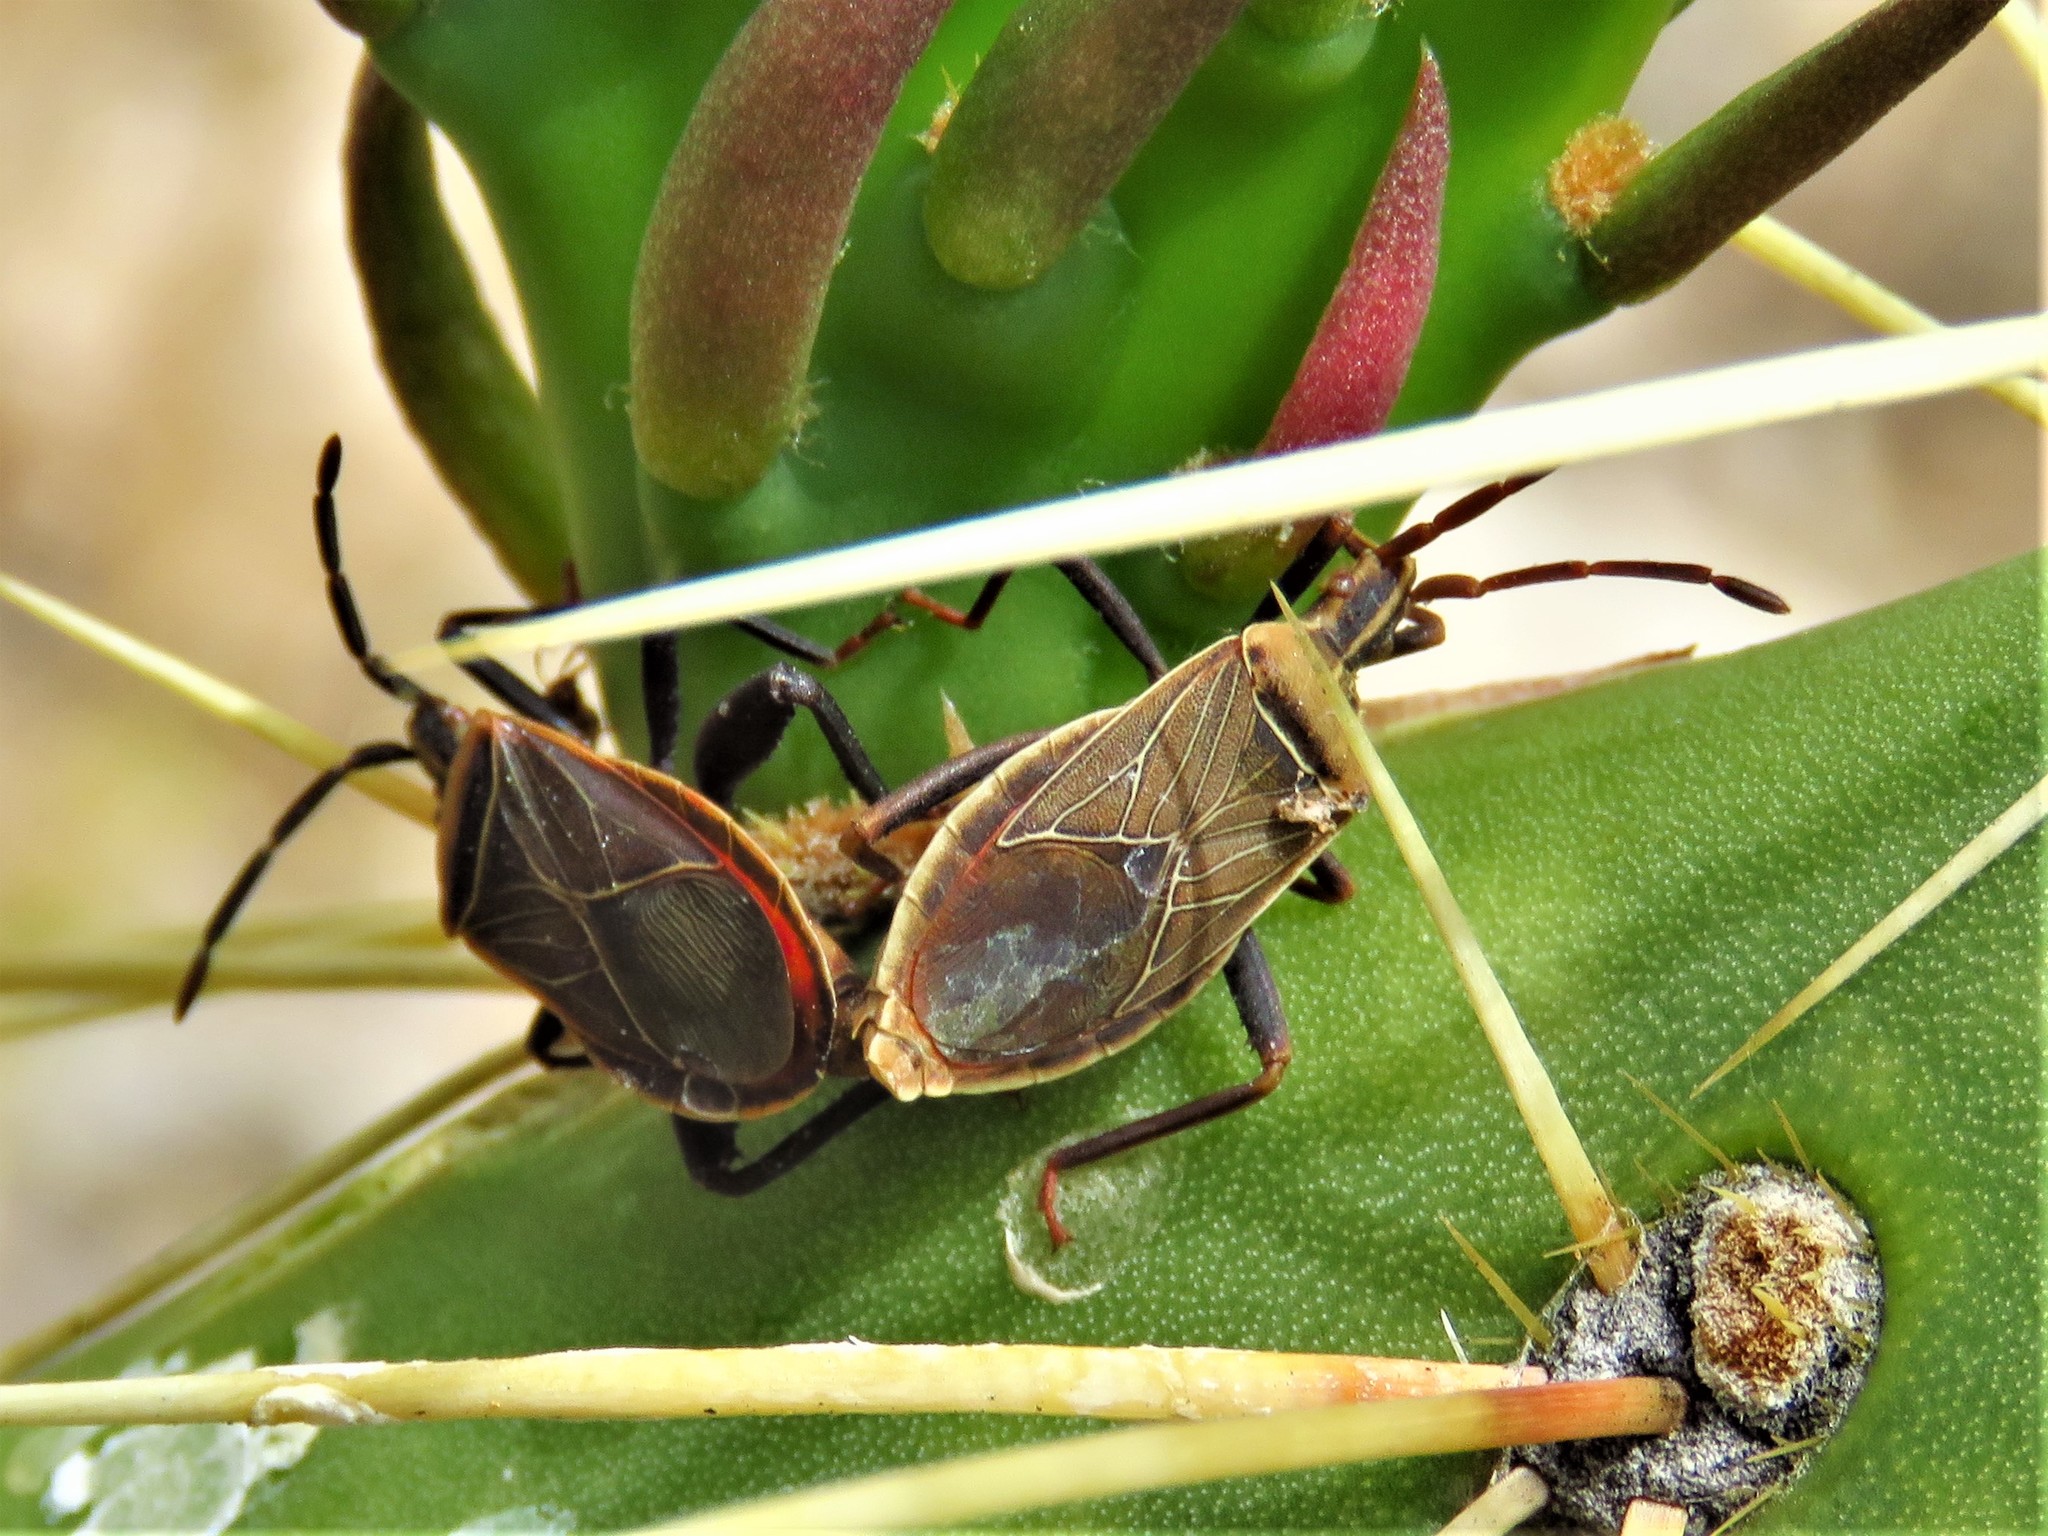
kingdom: Animalia
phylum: Arthropoda
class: Insecta
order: Hemiptera
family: Coreidae
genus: Chelinidea
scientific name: Chelinidea vittiger
